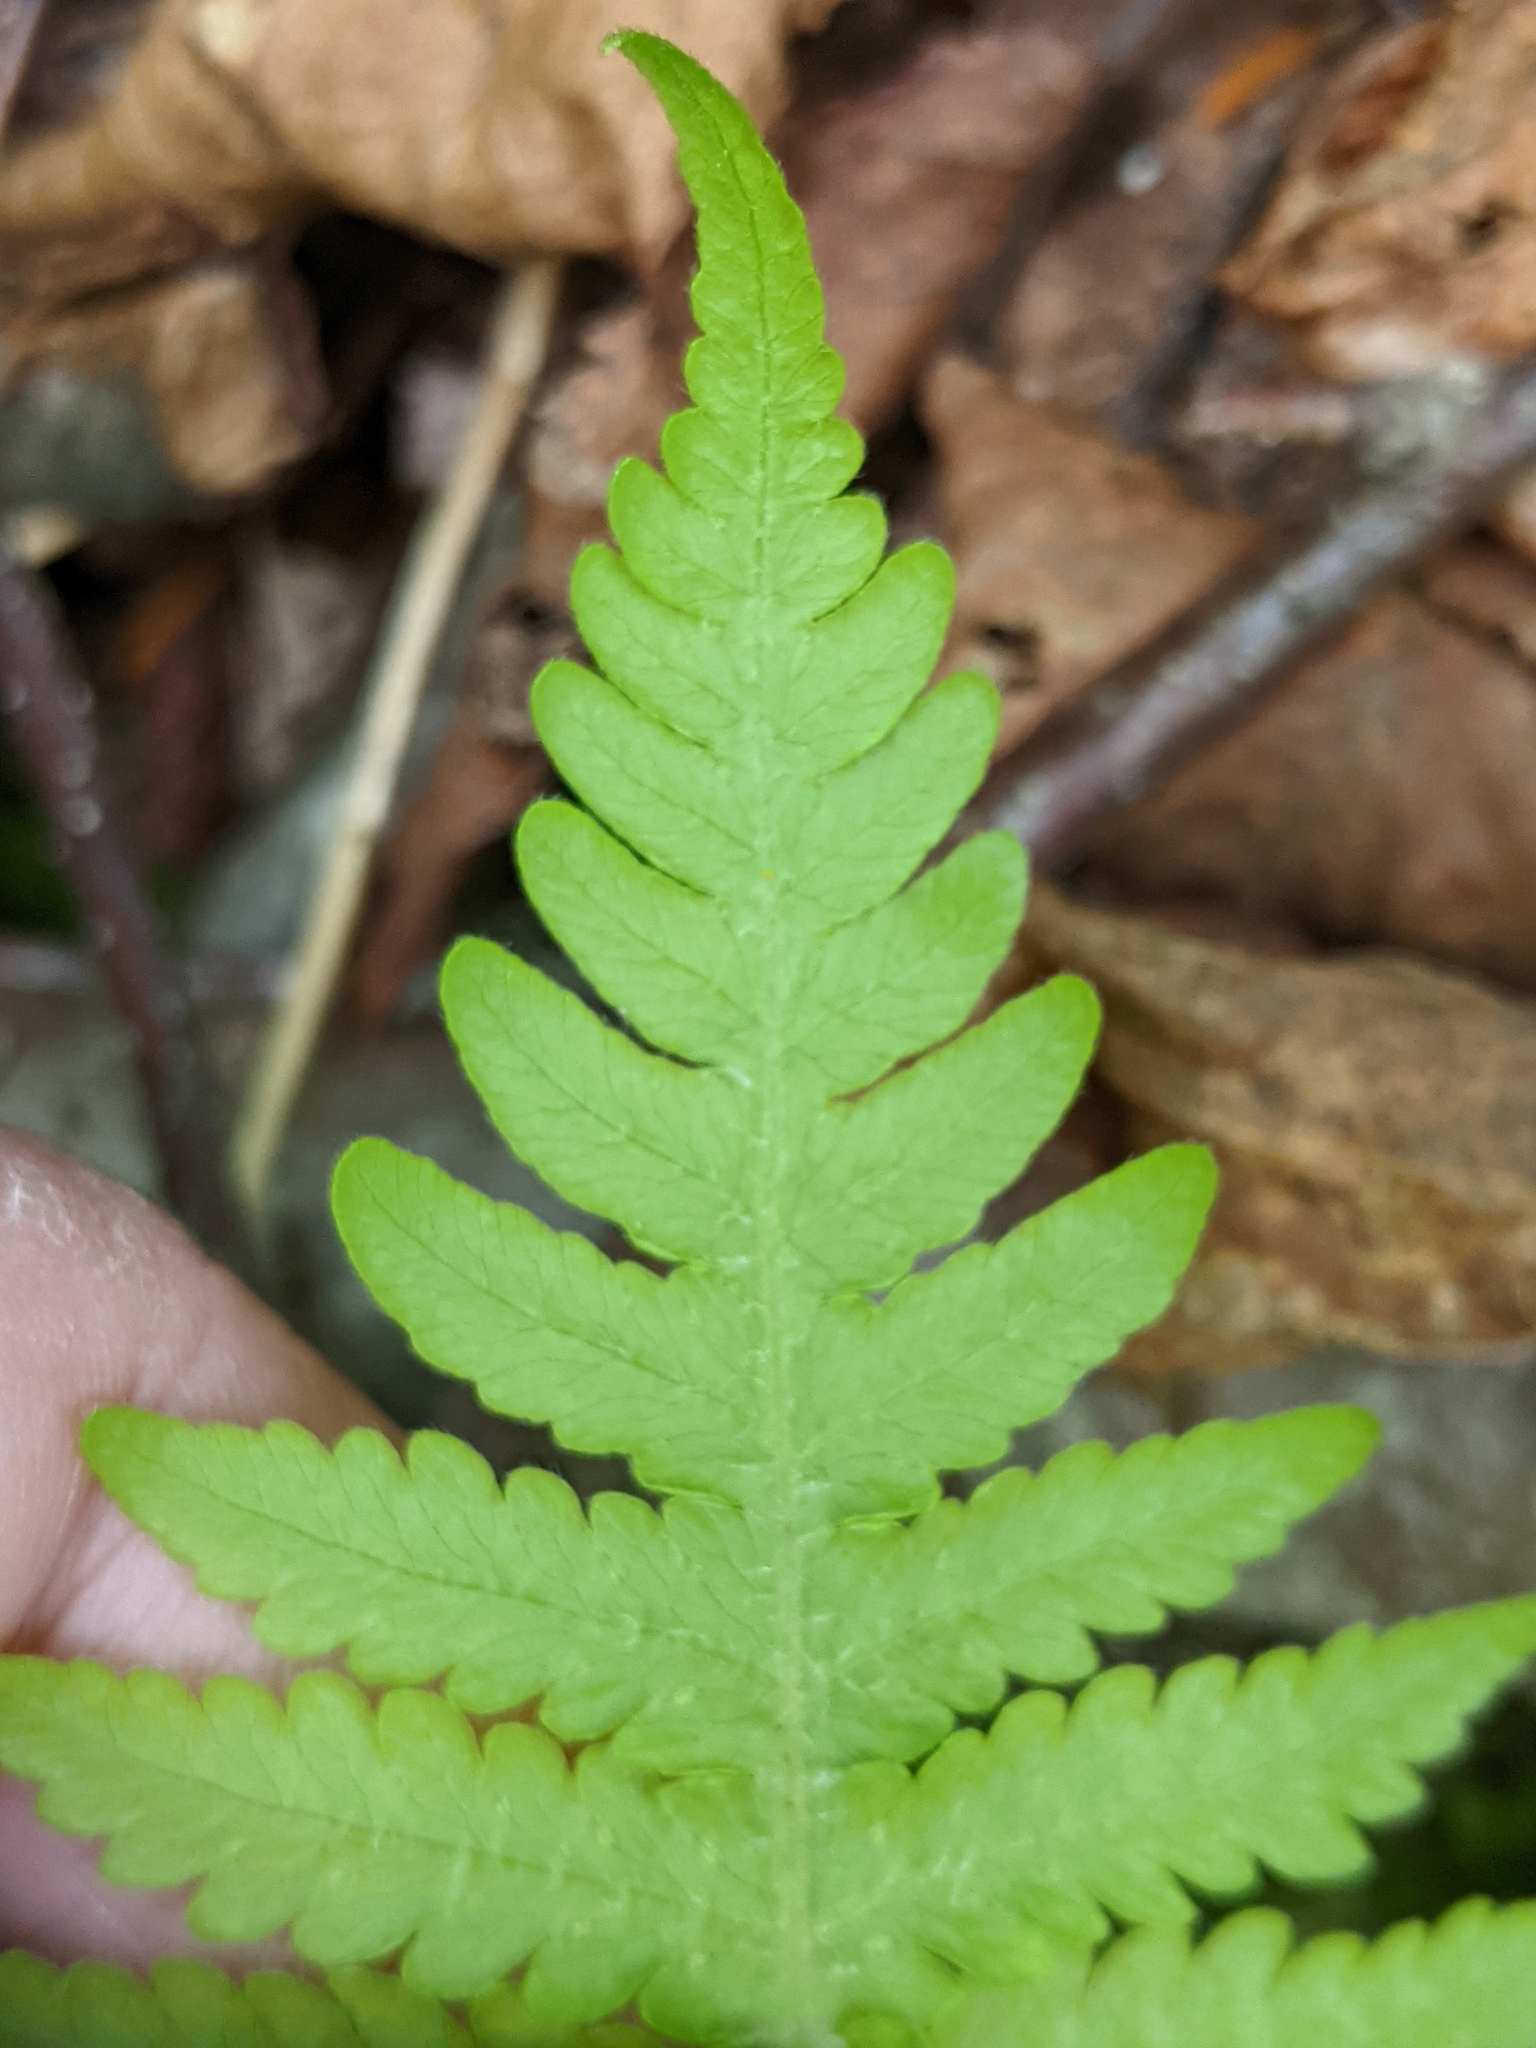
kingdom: Plantae
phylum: Tracheophyta
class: Polypodiopsida
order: Polypodiales
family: Thelypteridaceae
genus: Phegopteris
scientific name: Phegopteris connectilis
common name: Beech fern
